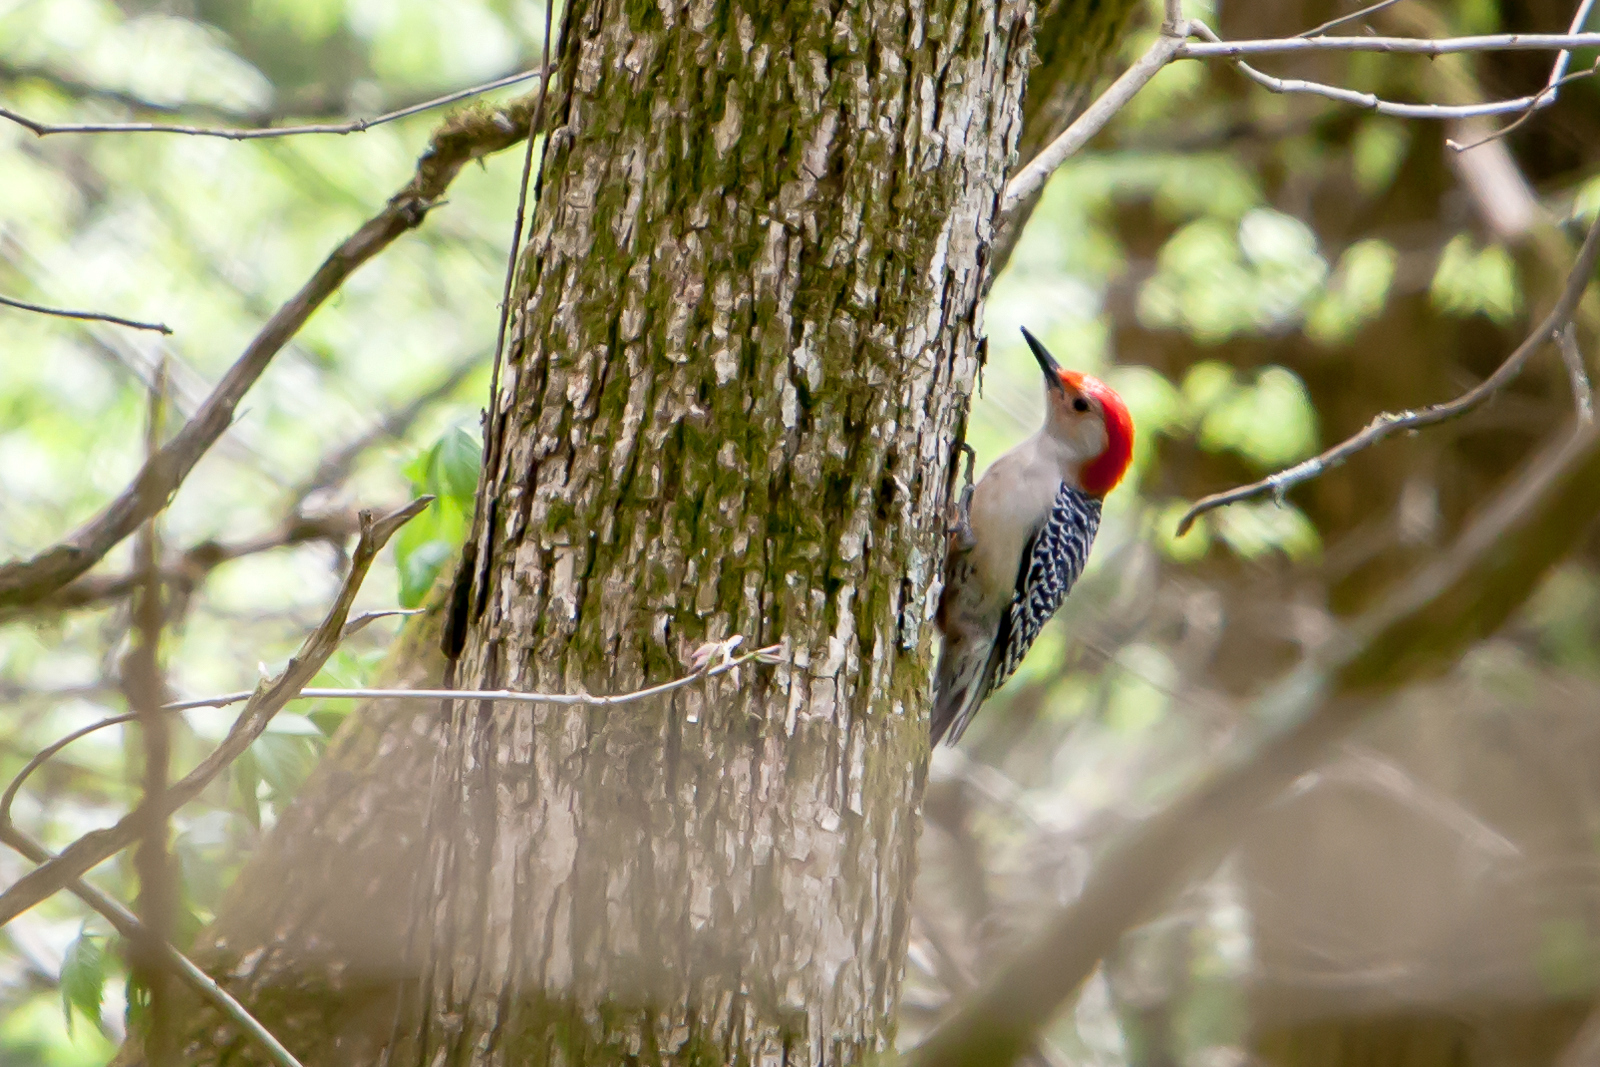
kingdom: Animalia
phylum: Chordata
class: Aves
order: Piciformes
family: Picidae
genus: Melanerpes
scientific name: Melanerpes carolinus
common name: Red-bellied woodpecker
